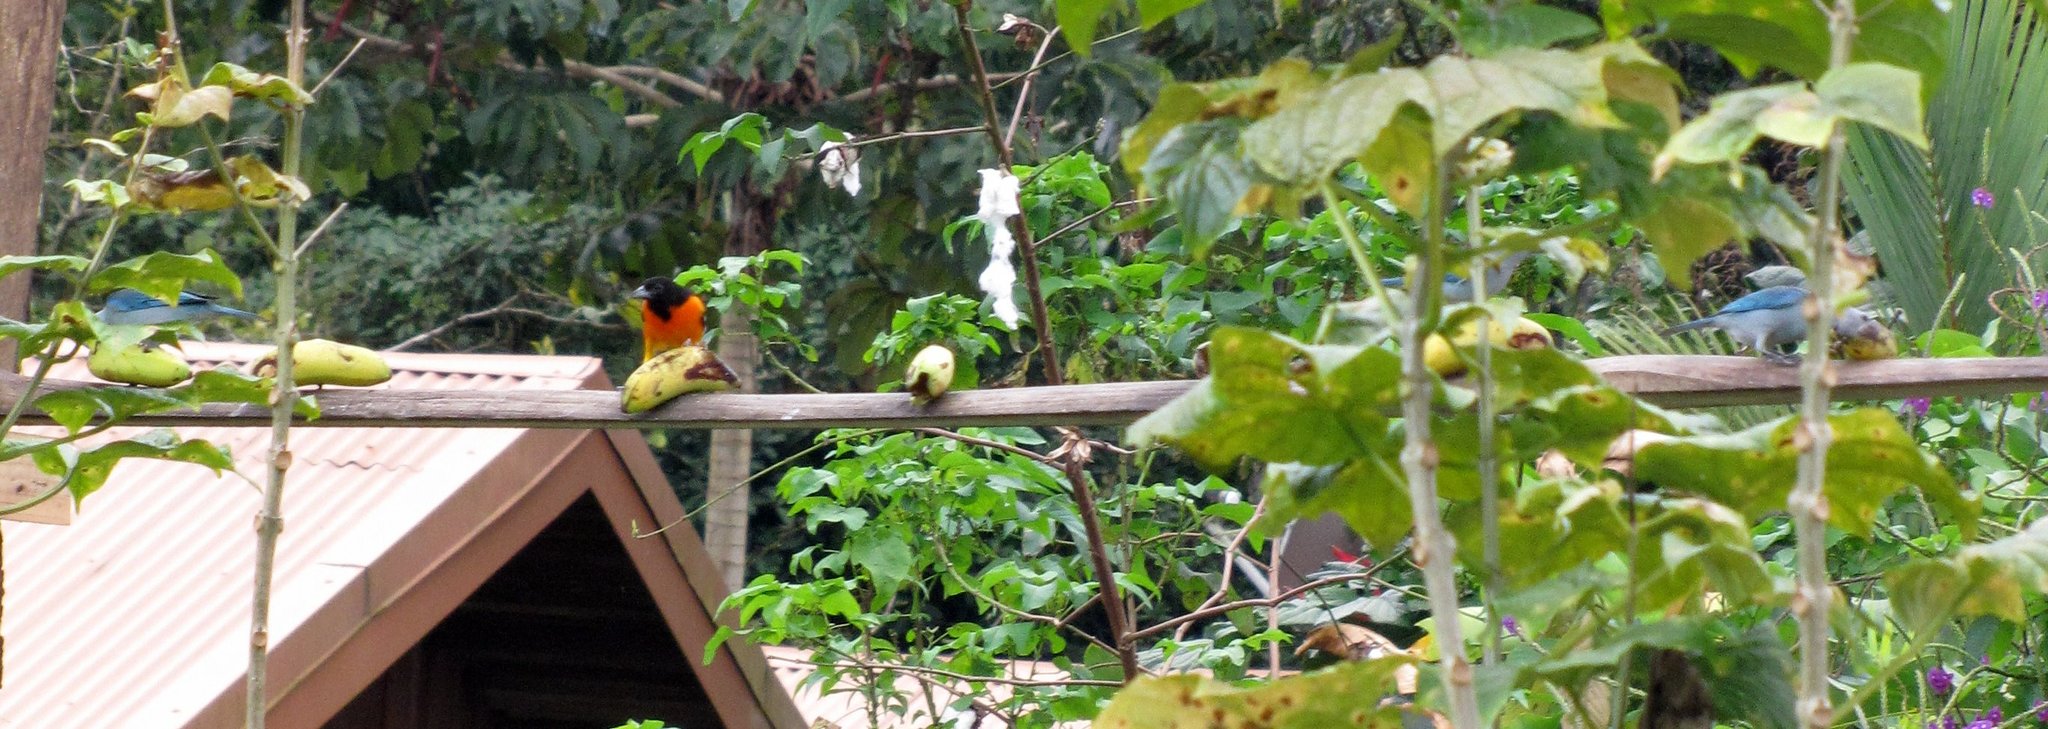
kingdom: Animalia
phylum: Chordata
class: Aves
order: Passeriformes
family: Thraupidae
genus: Thraupis
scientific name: Thraupis episcopus
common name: Blue-grey tanager
